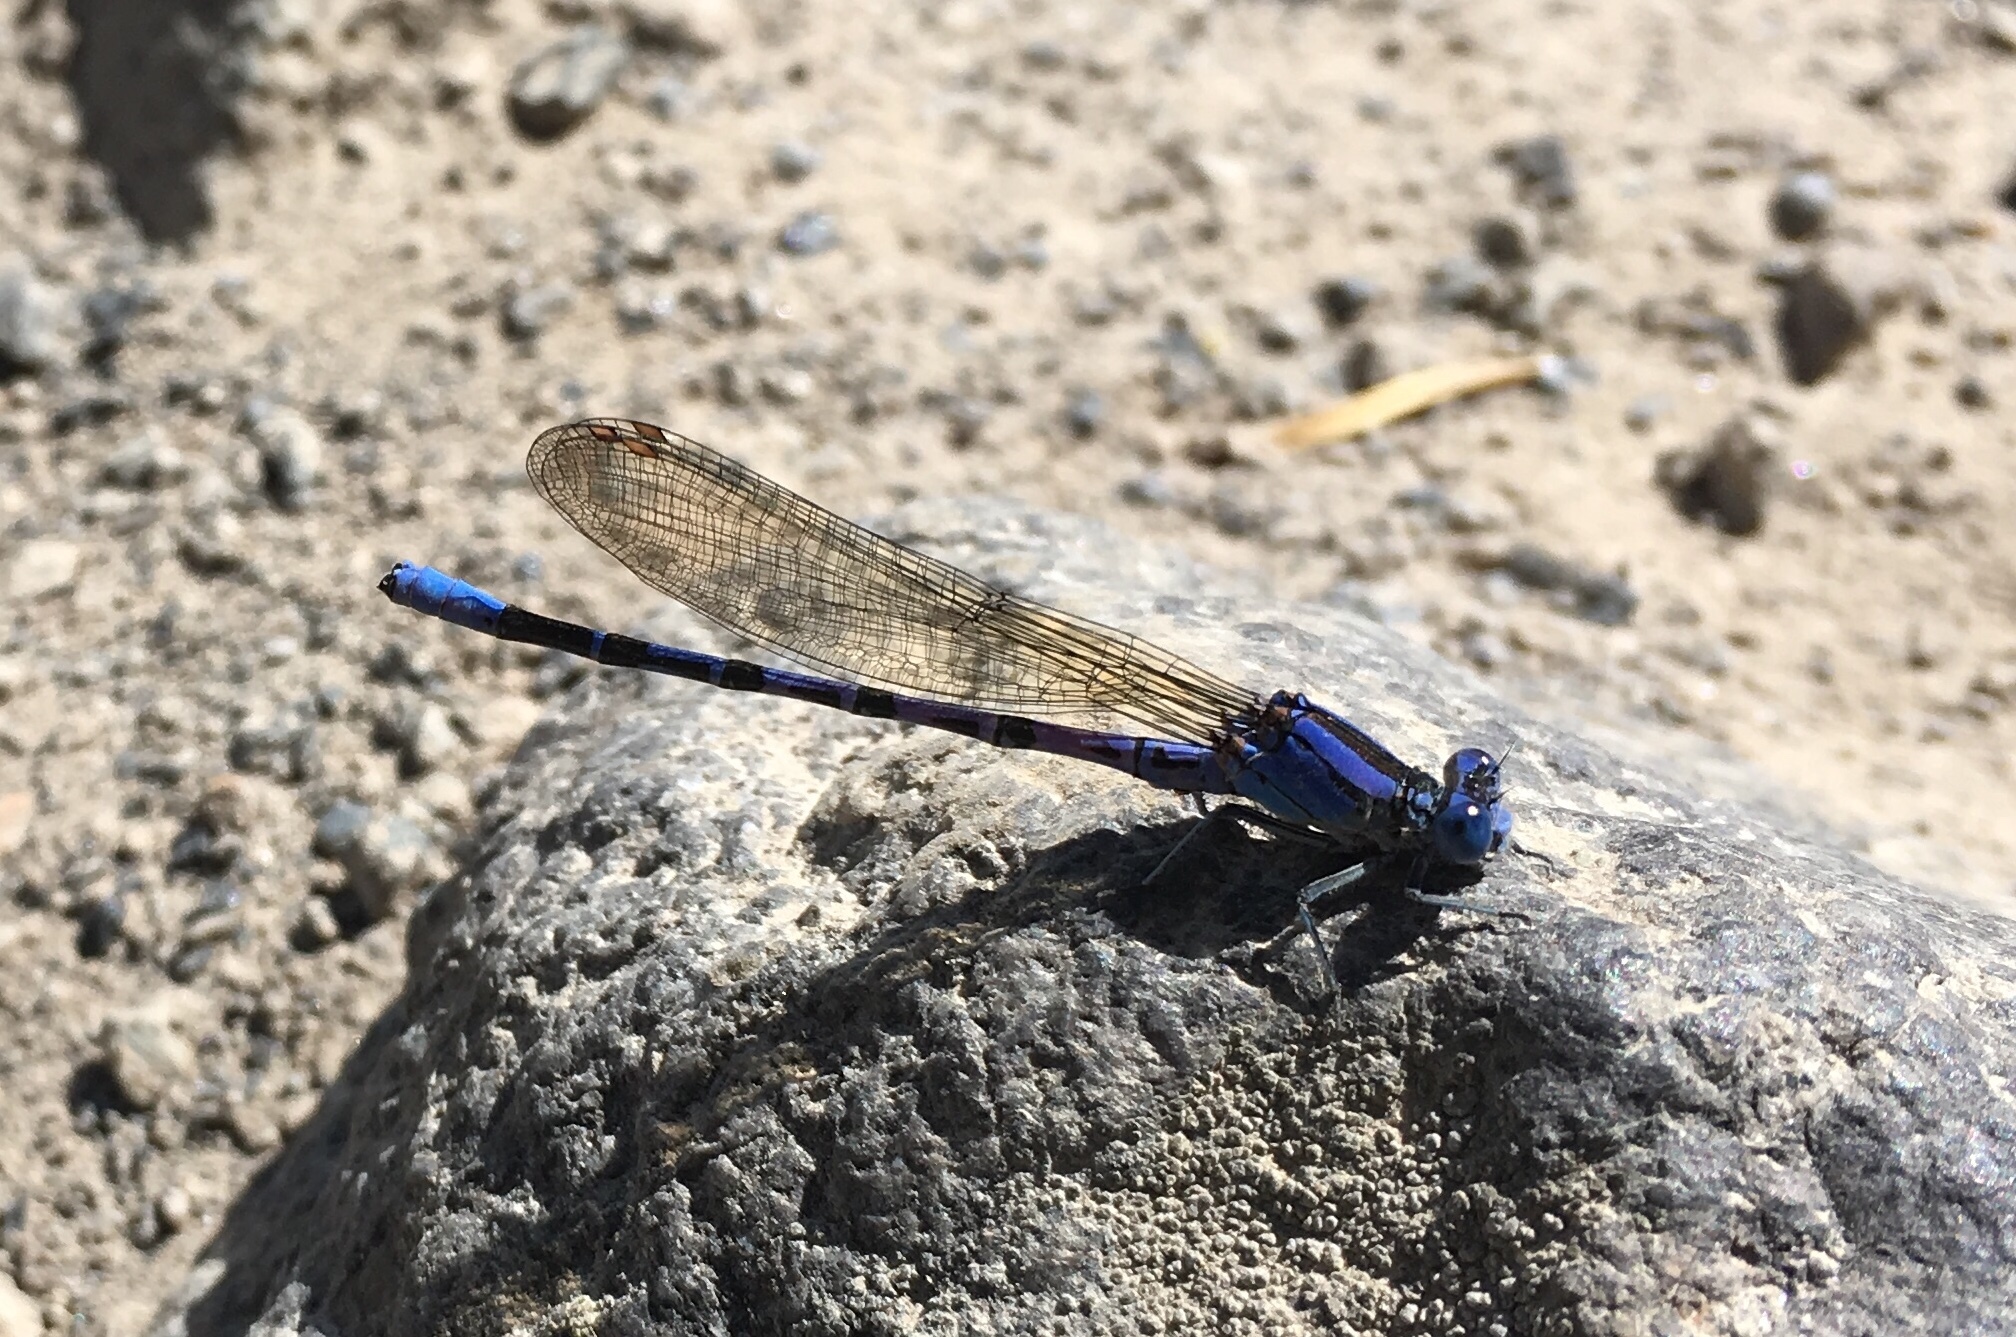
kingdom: Animalia
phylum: Arthropoda
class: Insecta
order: Odonata
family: Coenagrionidae
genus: Argia
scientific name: Argia vivida
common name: Vivid dancer
